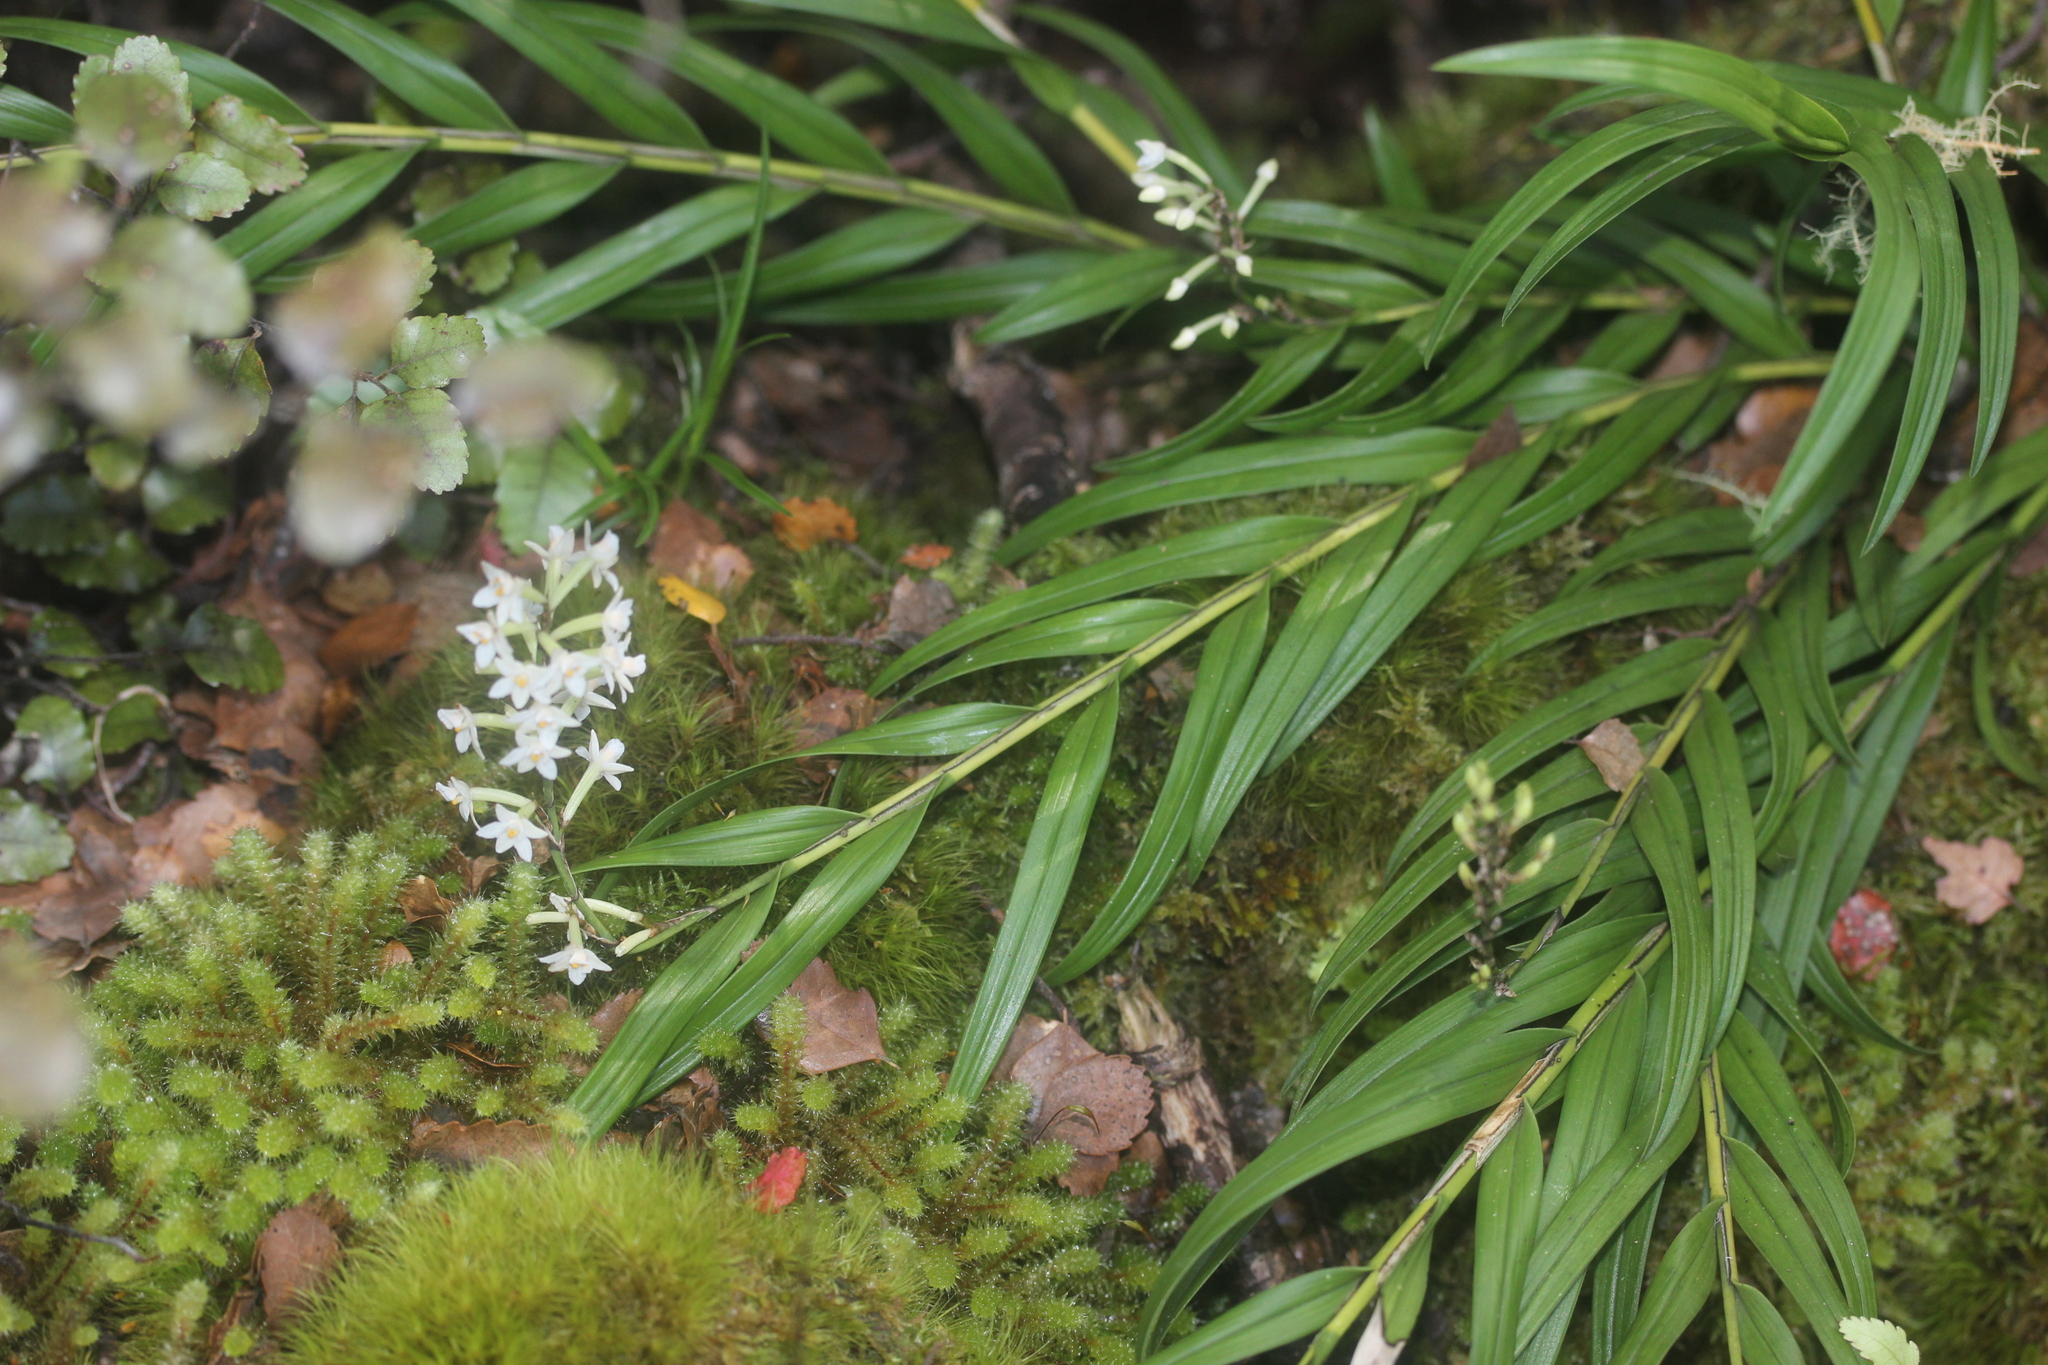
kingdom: Plantae
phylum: Tracheophyta
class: Liliopsida
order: Asparagales
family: Orchidaceae
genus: Earina
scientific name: Earina autumnalis
